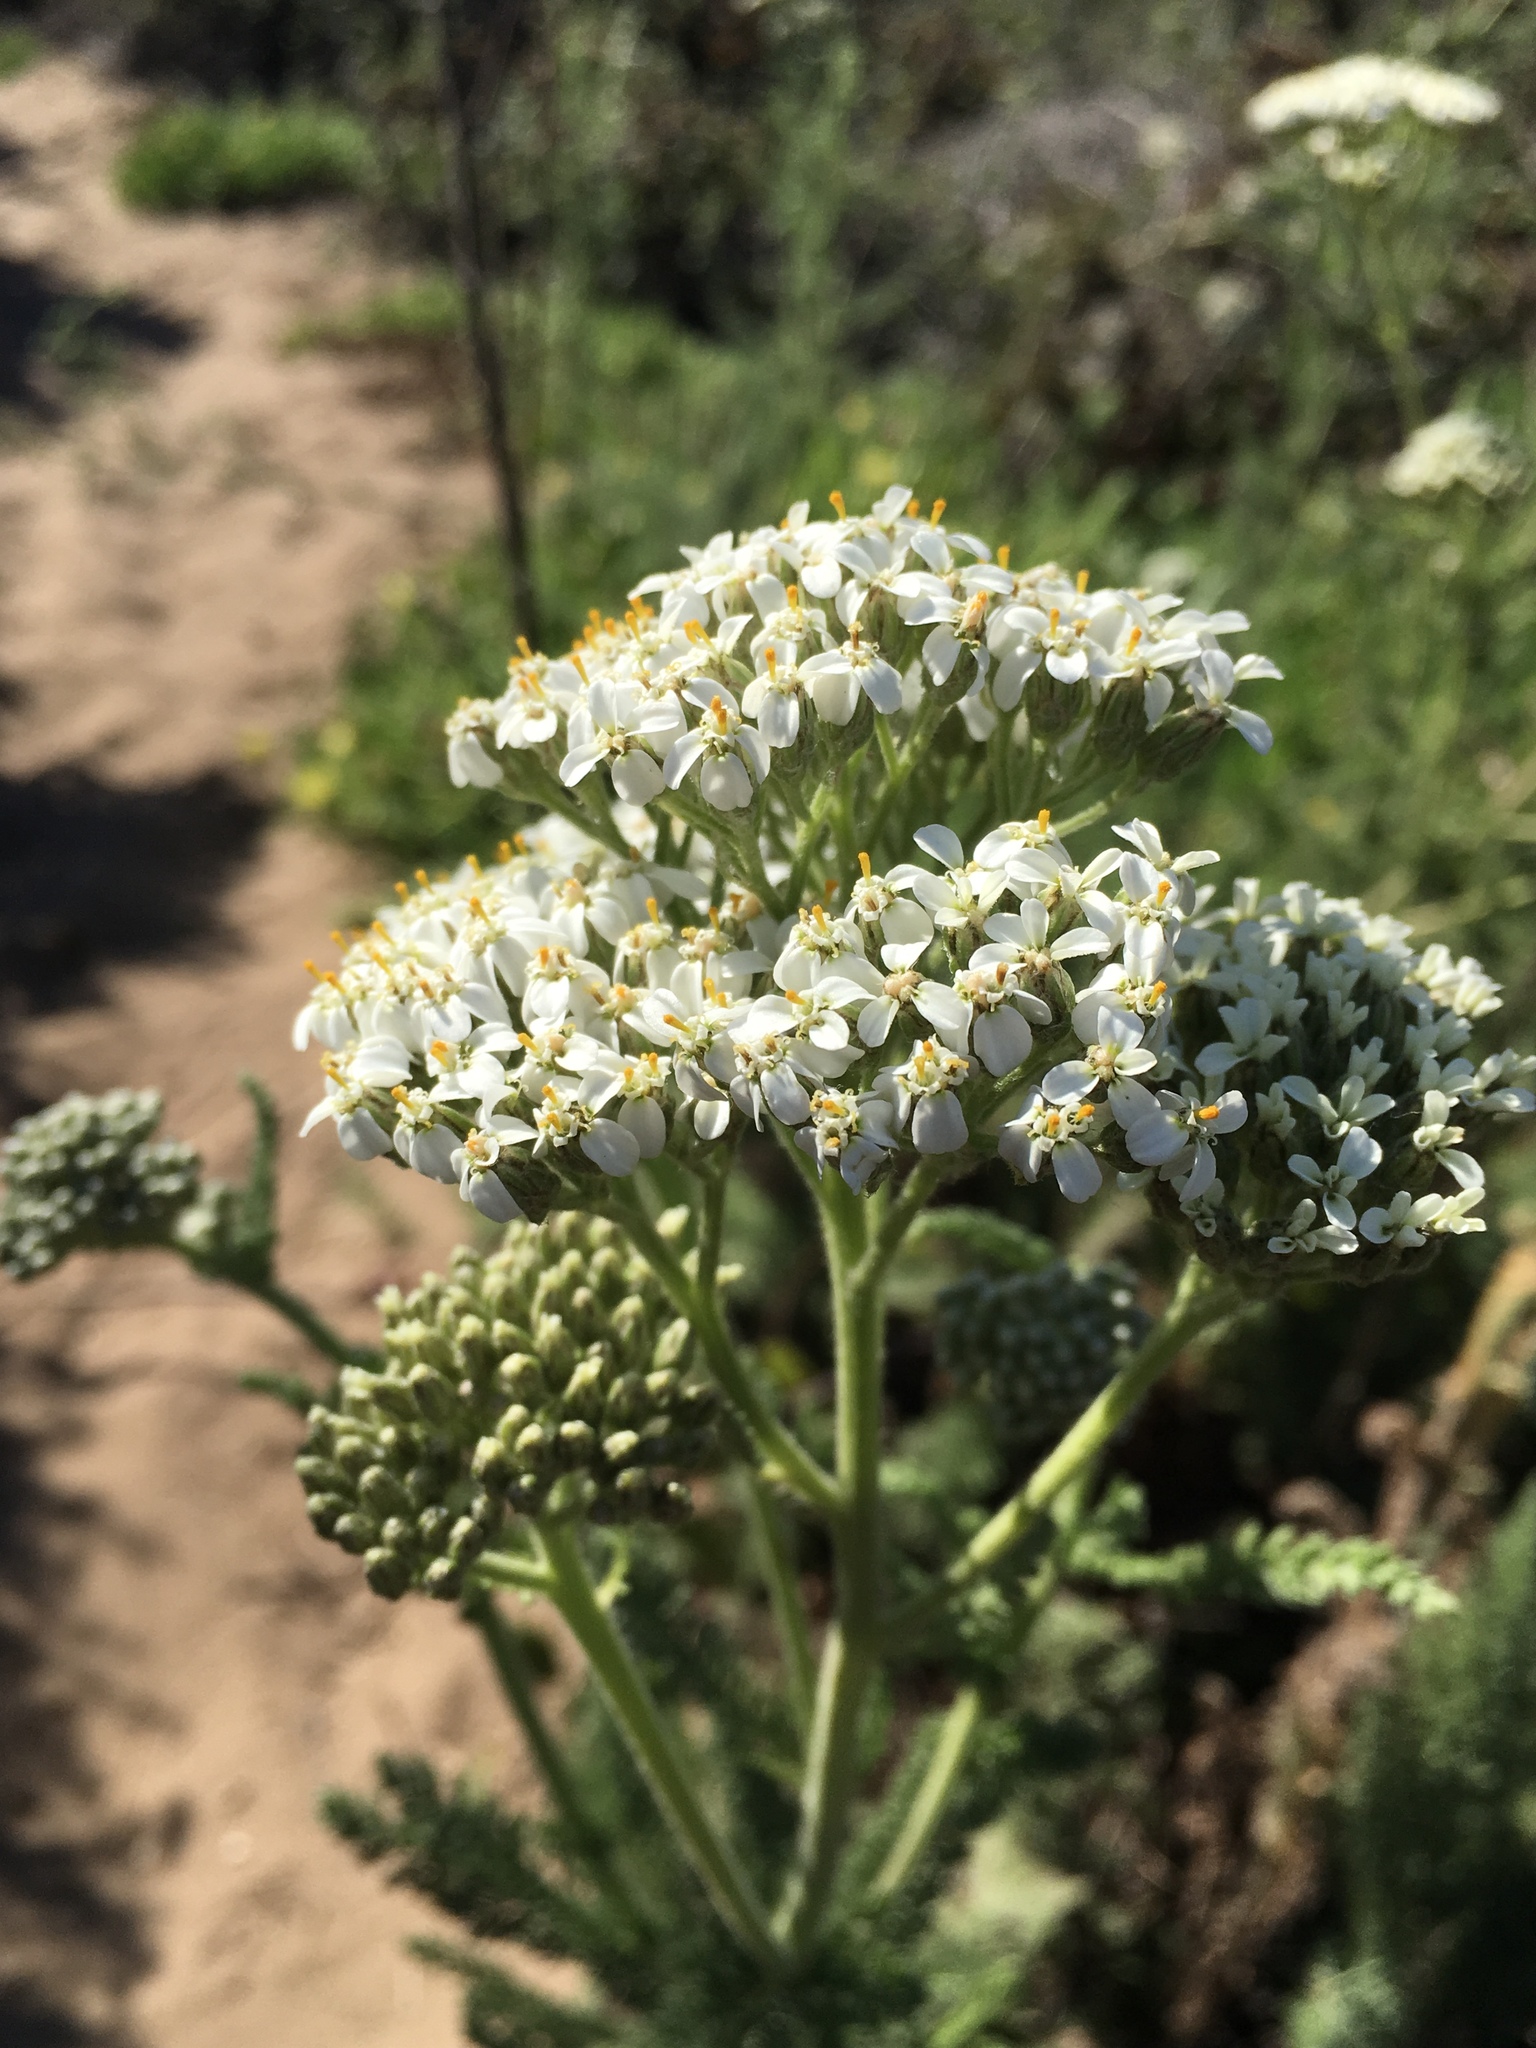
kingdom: Plantae
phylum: Tracheophyta
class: Magnoliopsida
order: Asterales
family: Asteraceae
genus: Achillea
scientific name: Achillea millefolium
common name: Yarrow
